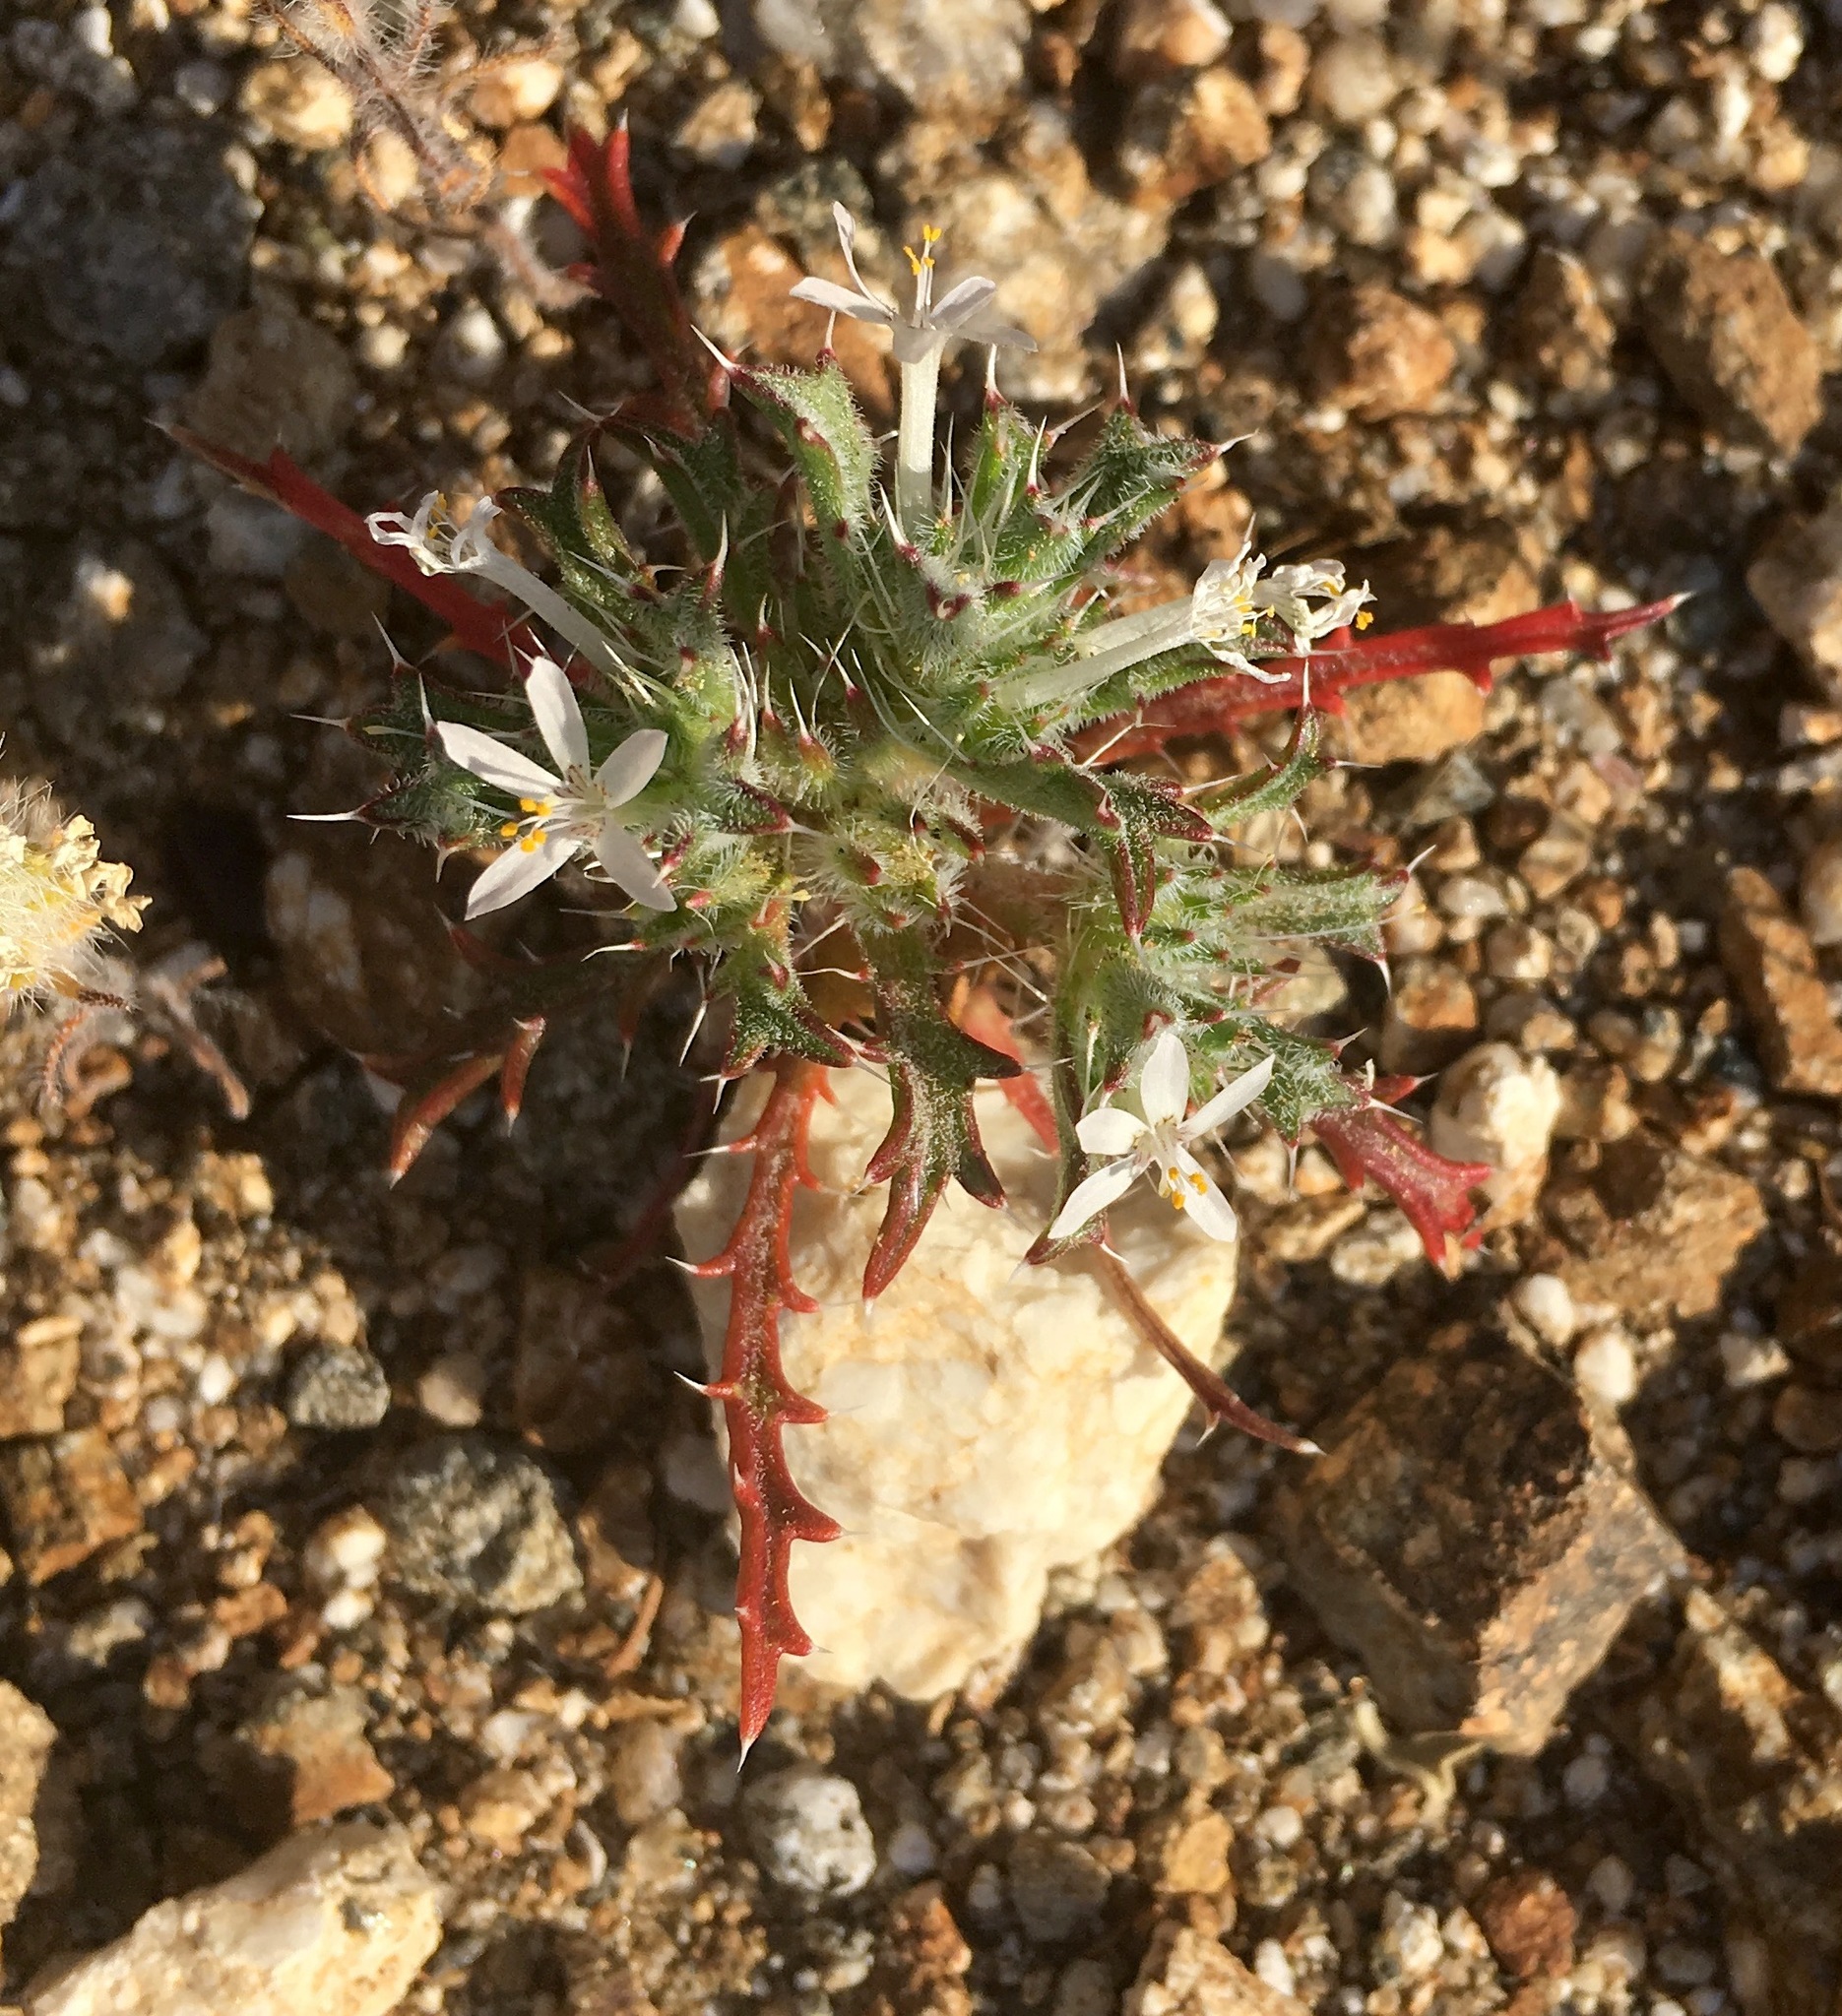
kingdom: Plantae
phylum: Tracheophyta
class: Magnoliopsida
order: Ericales
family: Polemoniaceae
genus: Loeseliastrum
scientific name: Loeseliastrum schottii
